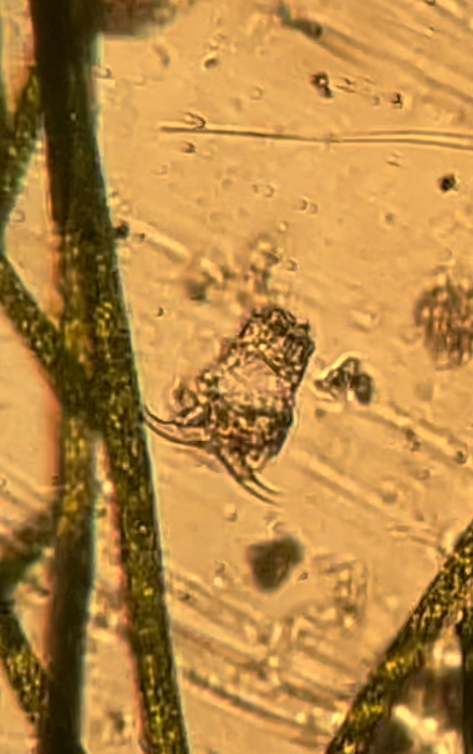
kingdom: Animalia
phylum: Rotifera
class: Eurotatoria
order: Ploima
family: Notommatidae
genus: Cephalodella
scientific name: Cephalodella
